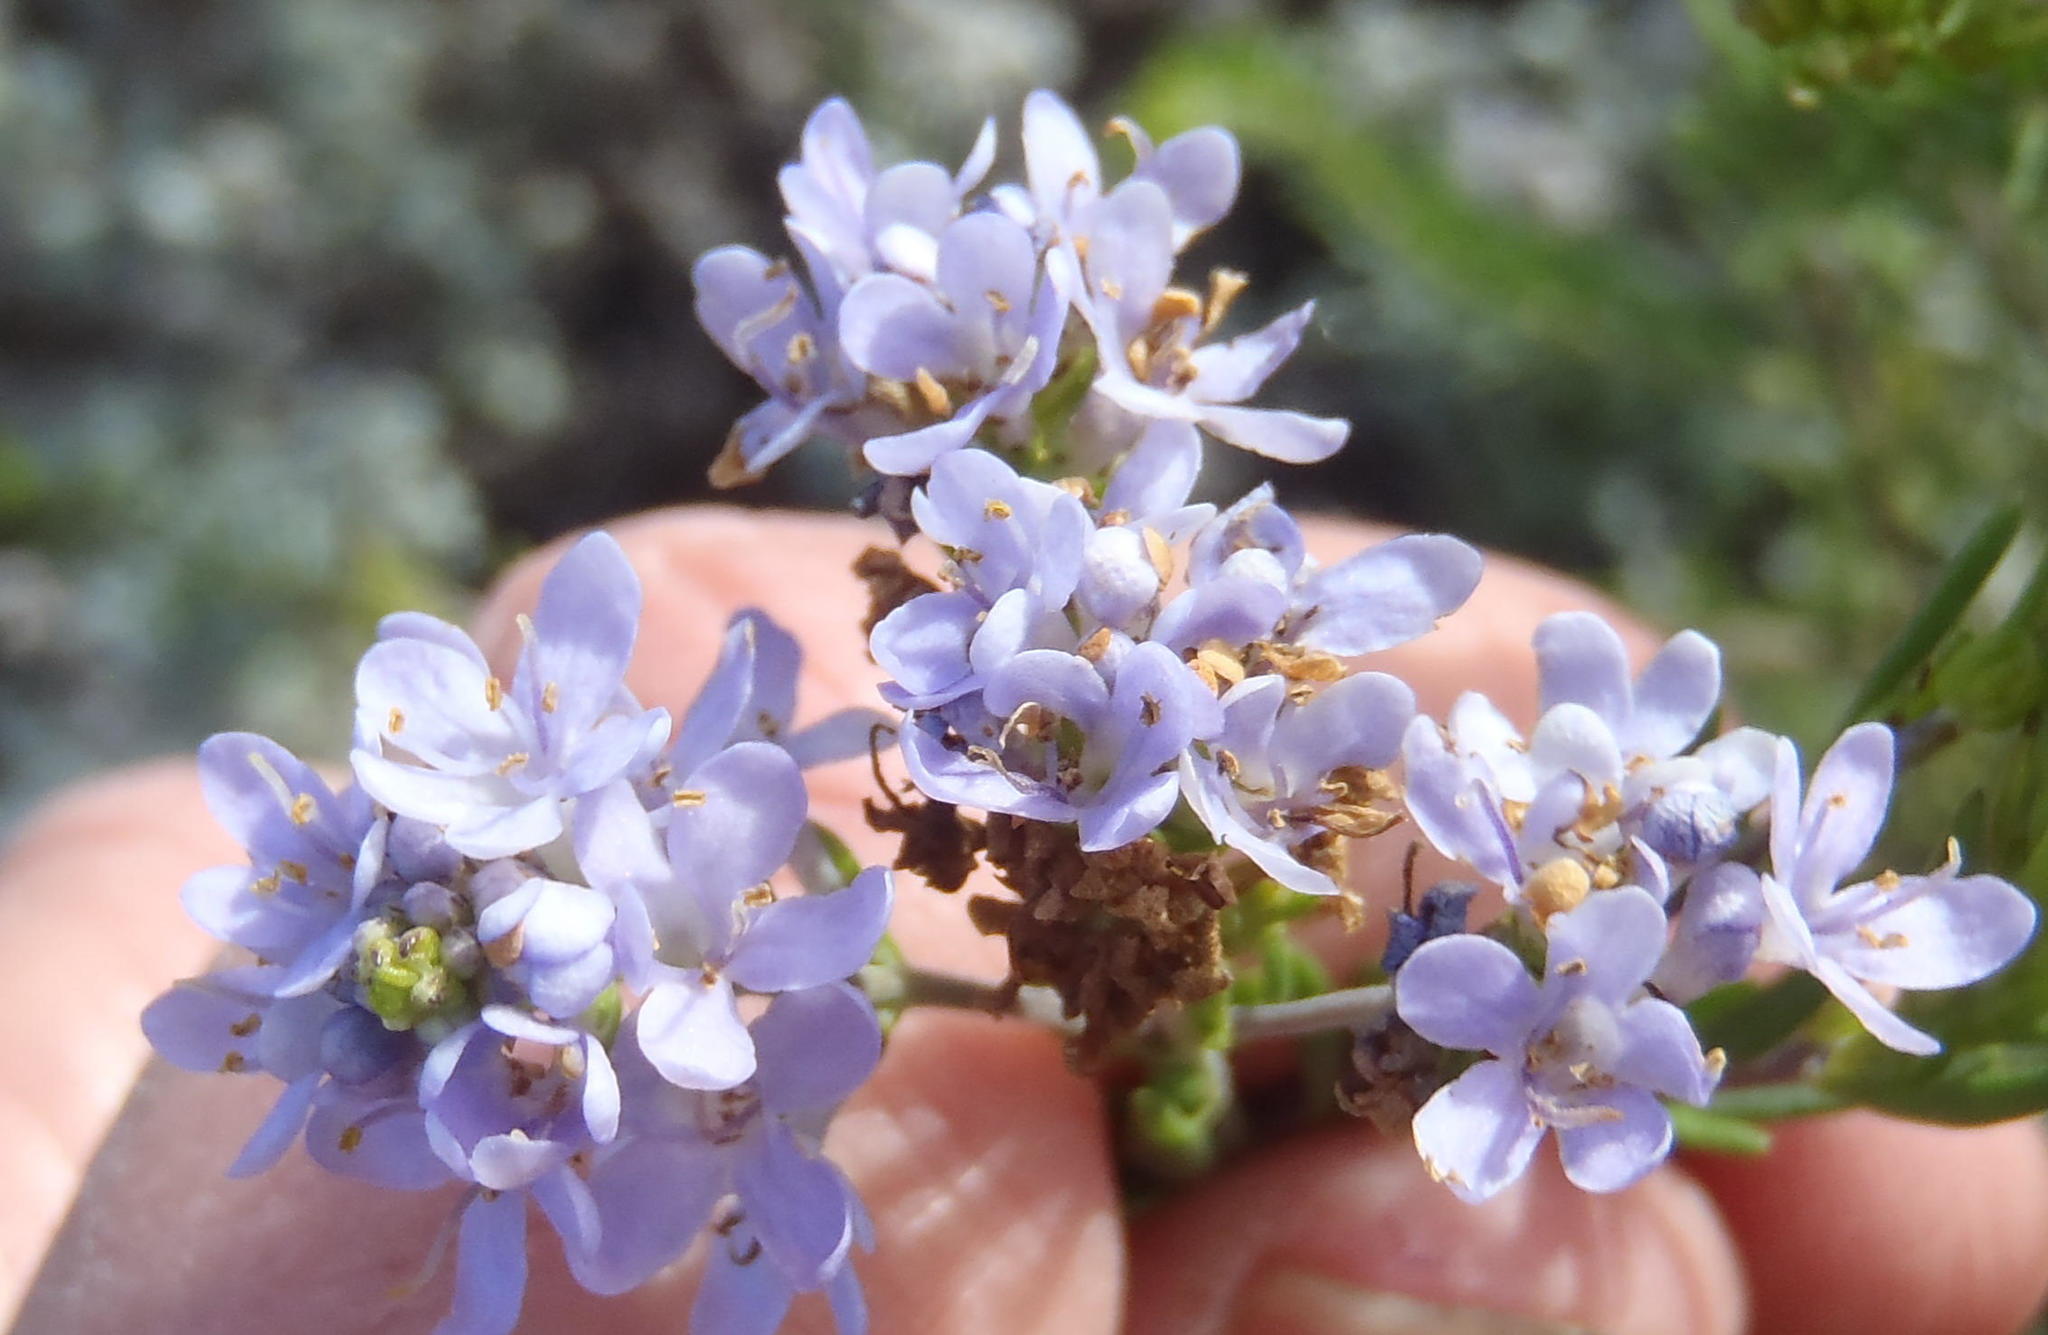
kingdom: Plantae
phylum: Tracheophyta
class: Magnoliopsida
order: Lamiales
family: Scrophulariaceae
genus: Selago
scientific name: Selago cinerea
